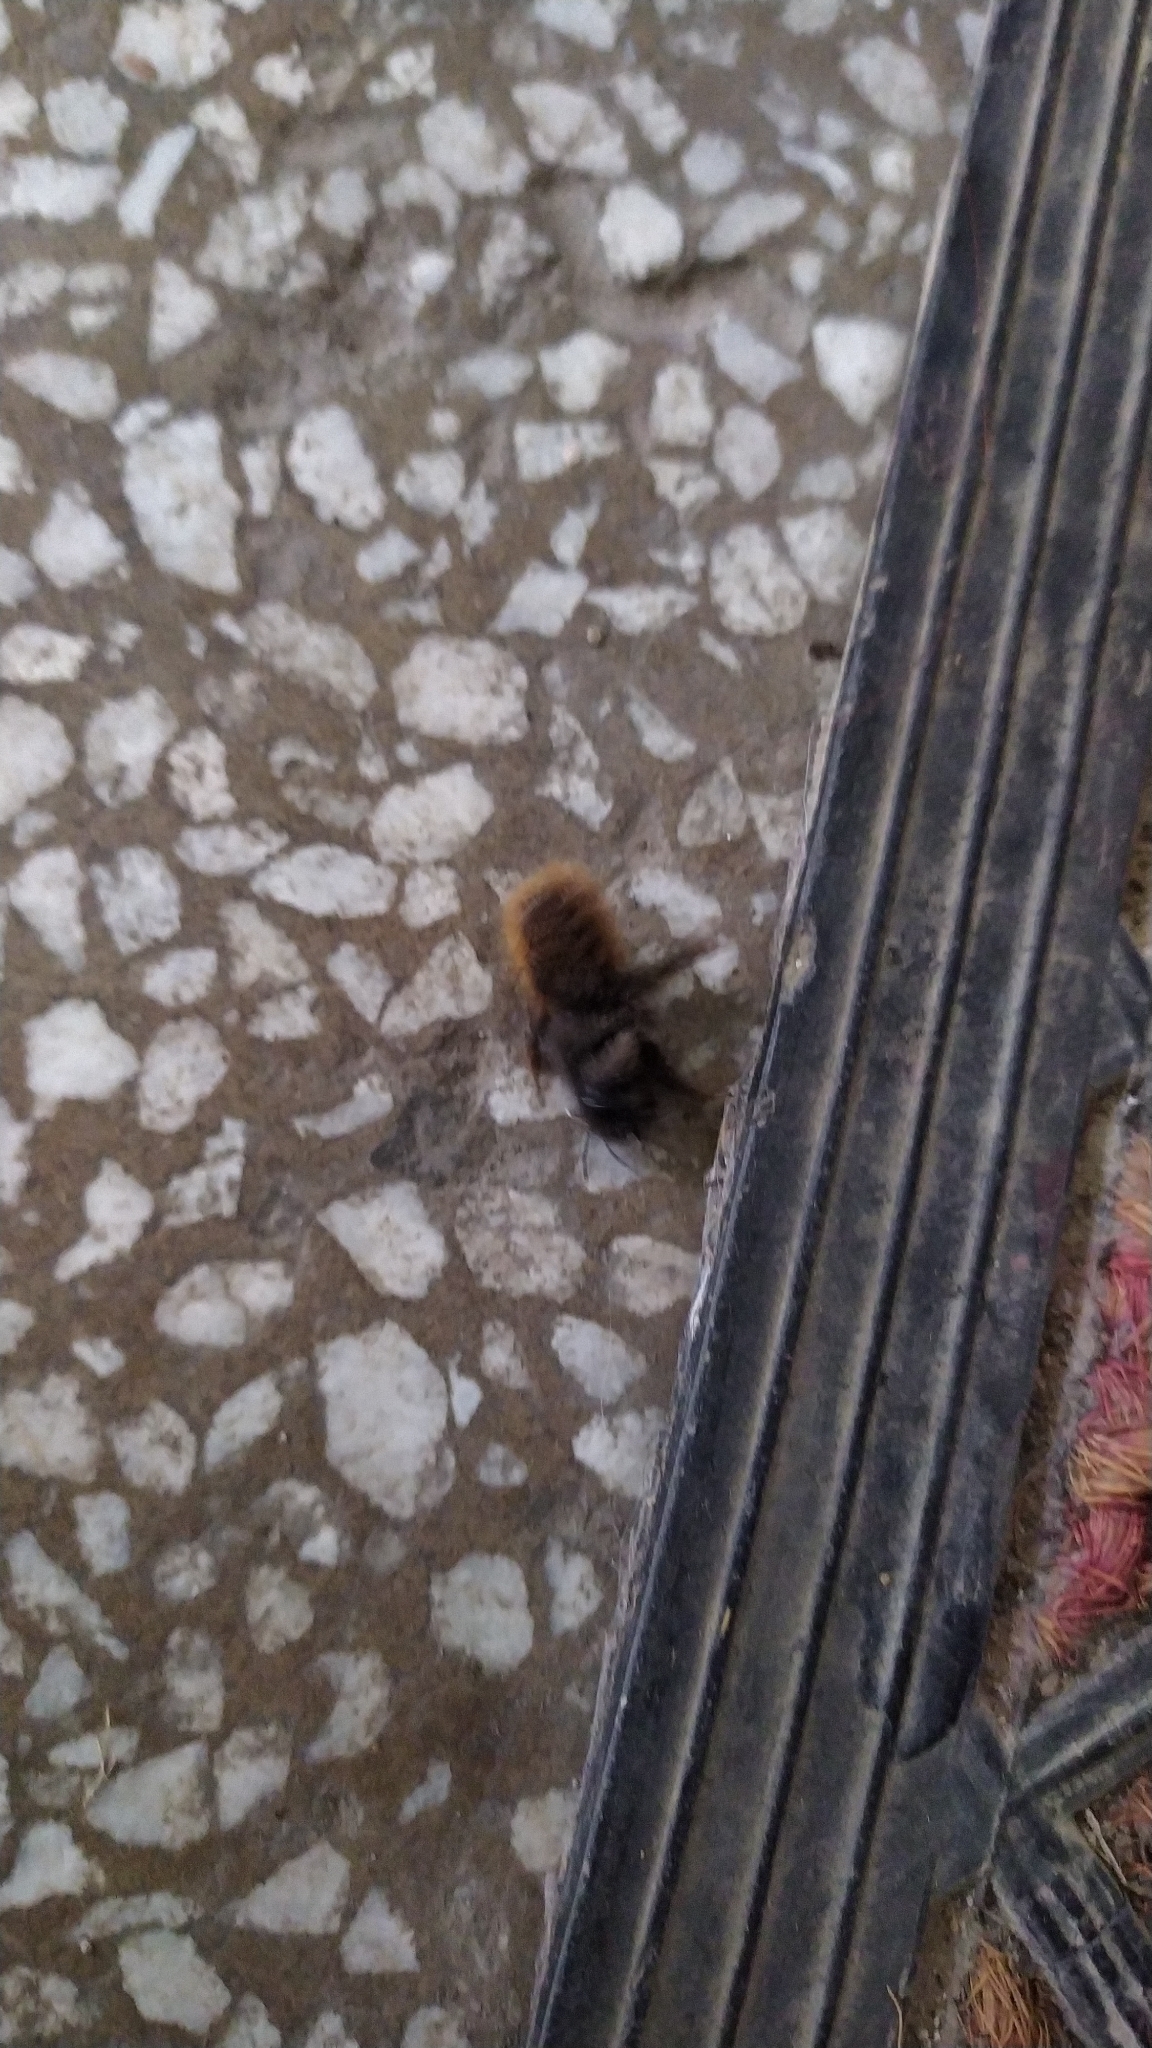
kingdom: Animalia
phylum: Arthropoda
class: Insecta
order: Hymenoptera
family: Megachilidae
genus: Osmia
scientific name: Osmia cornuta
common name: Mason bee
